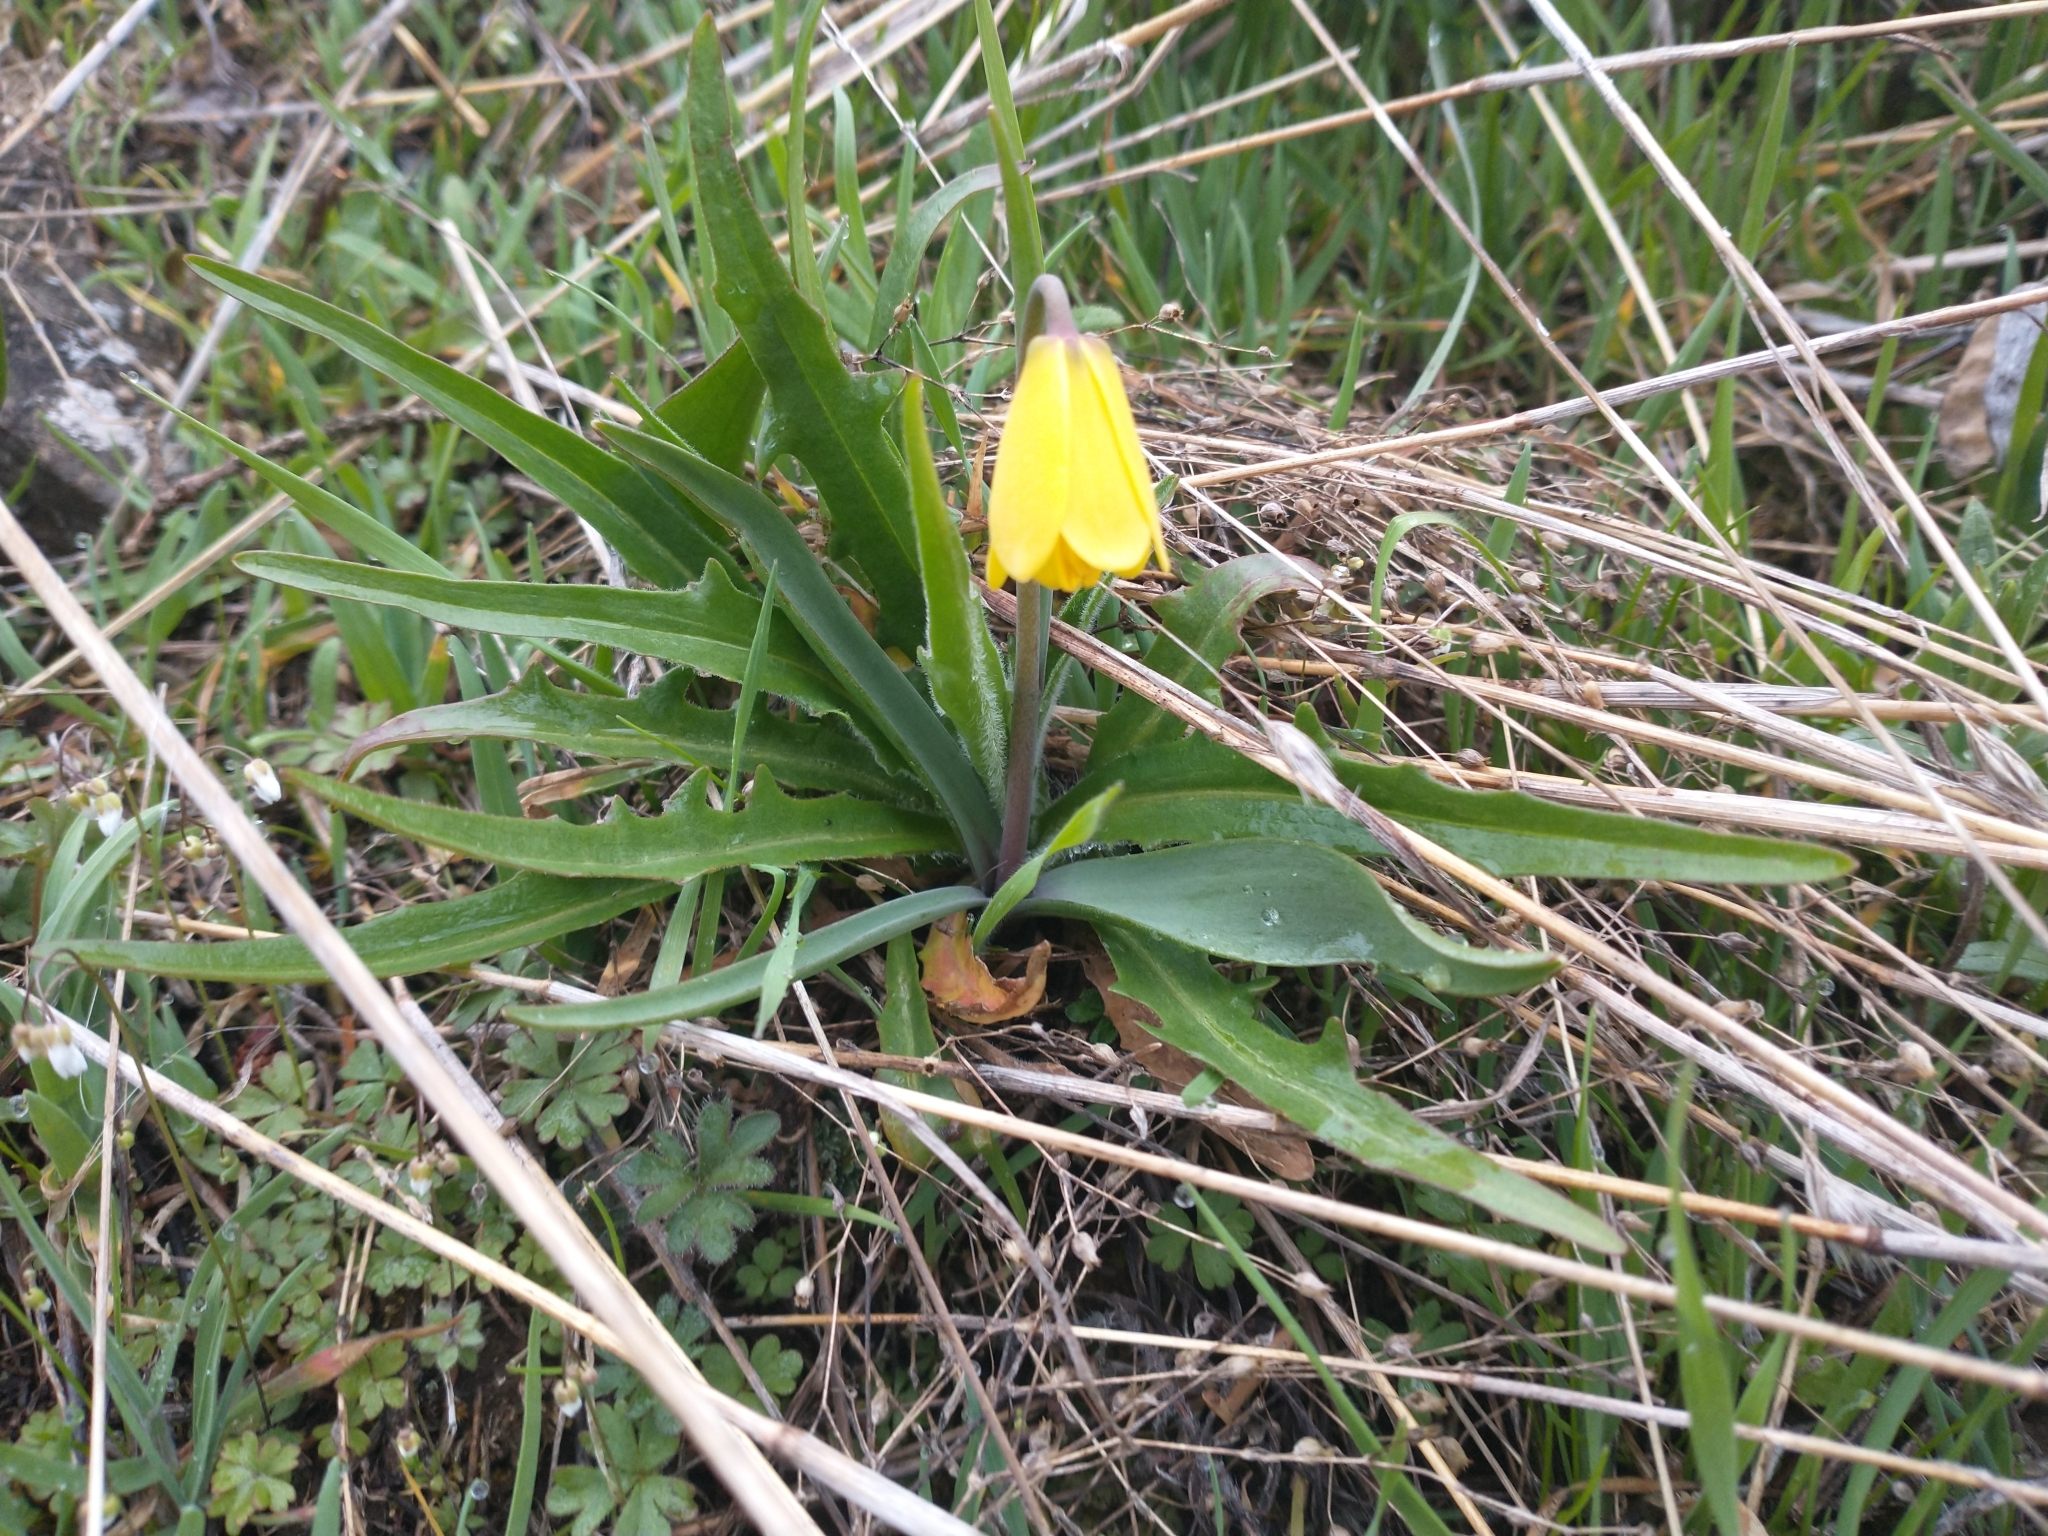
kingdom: Plantae
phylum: Tracheophyta
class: Liliopsida
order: Liliales
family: Liliaceae
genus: Fritillaria
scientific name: Fritillaria pudica
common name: Yellow fritillary
